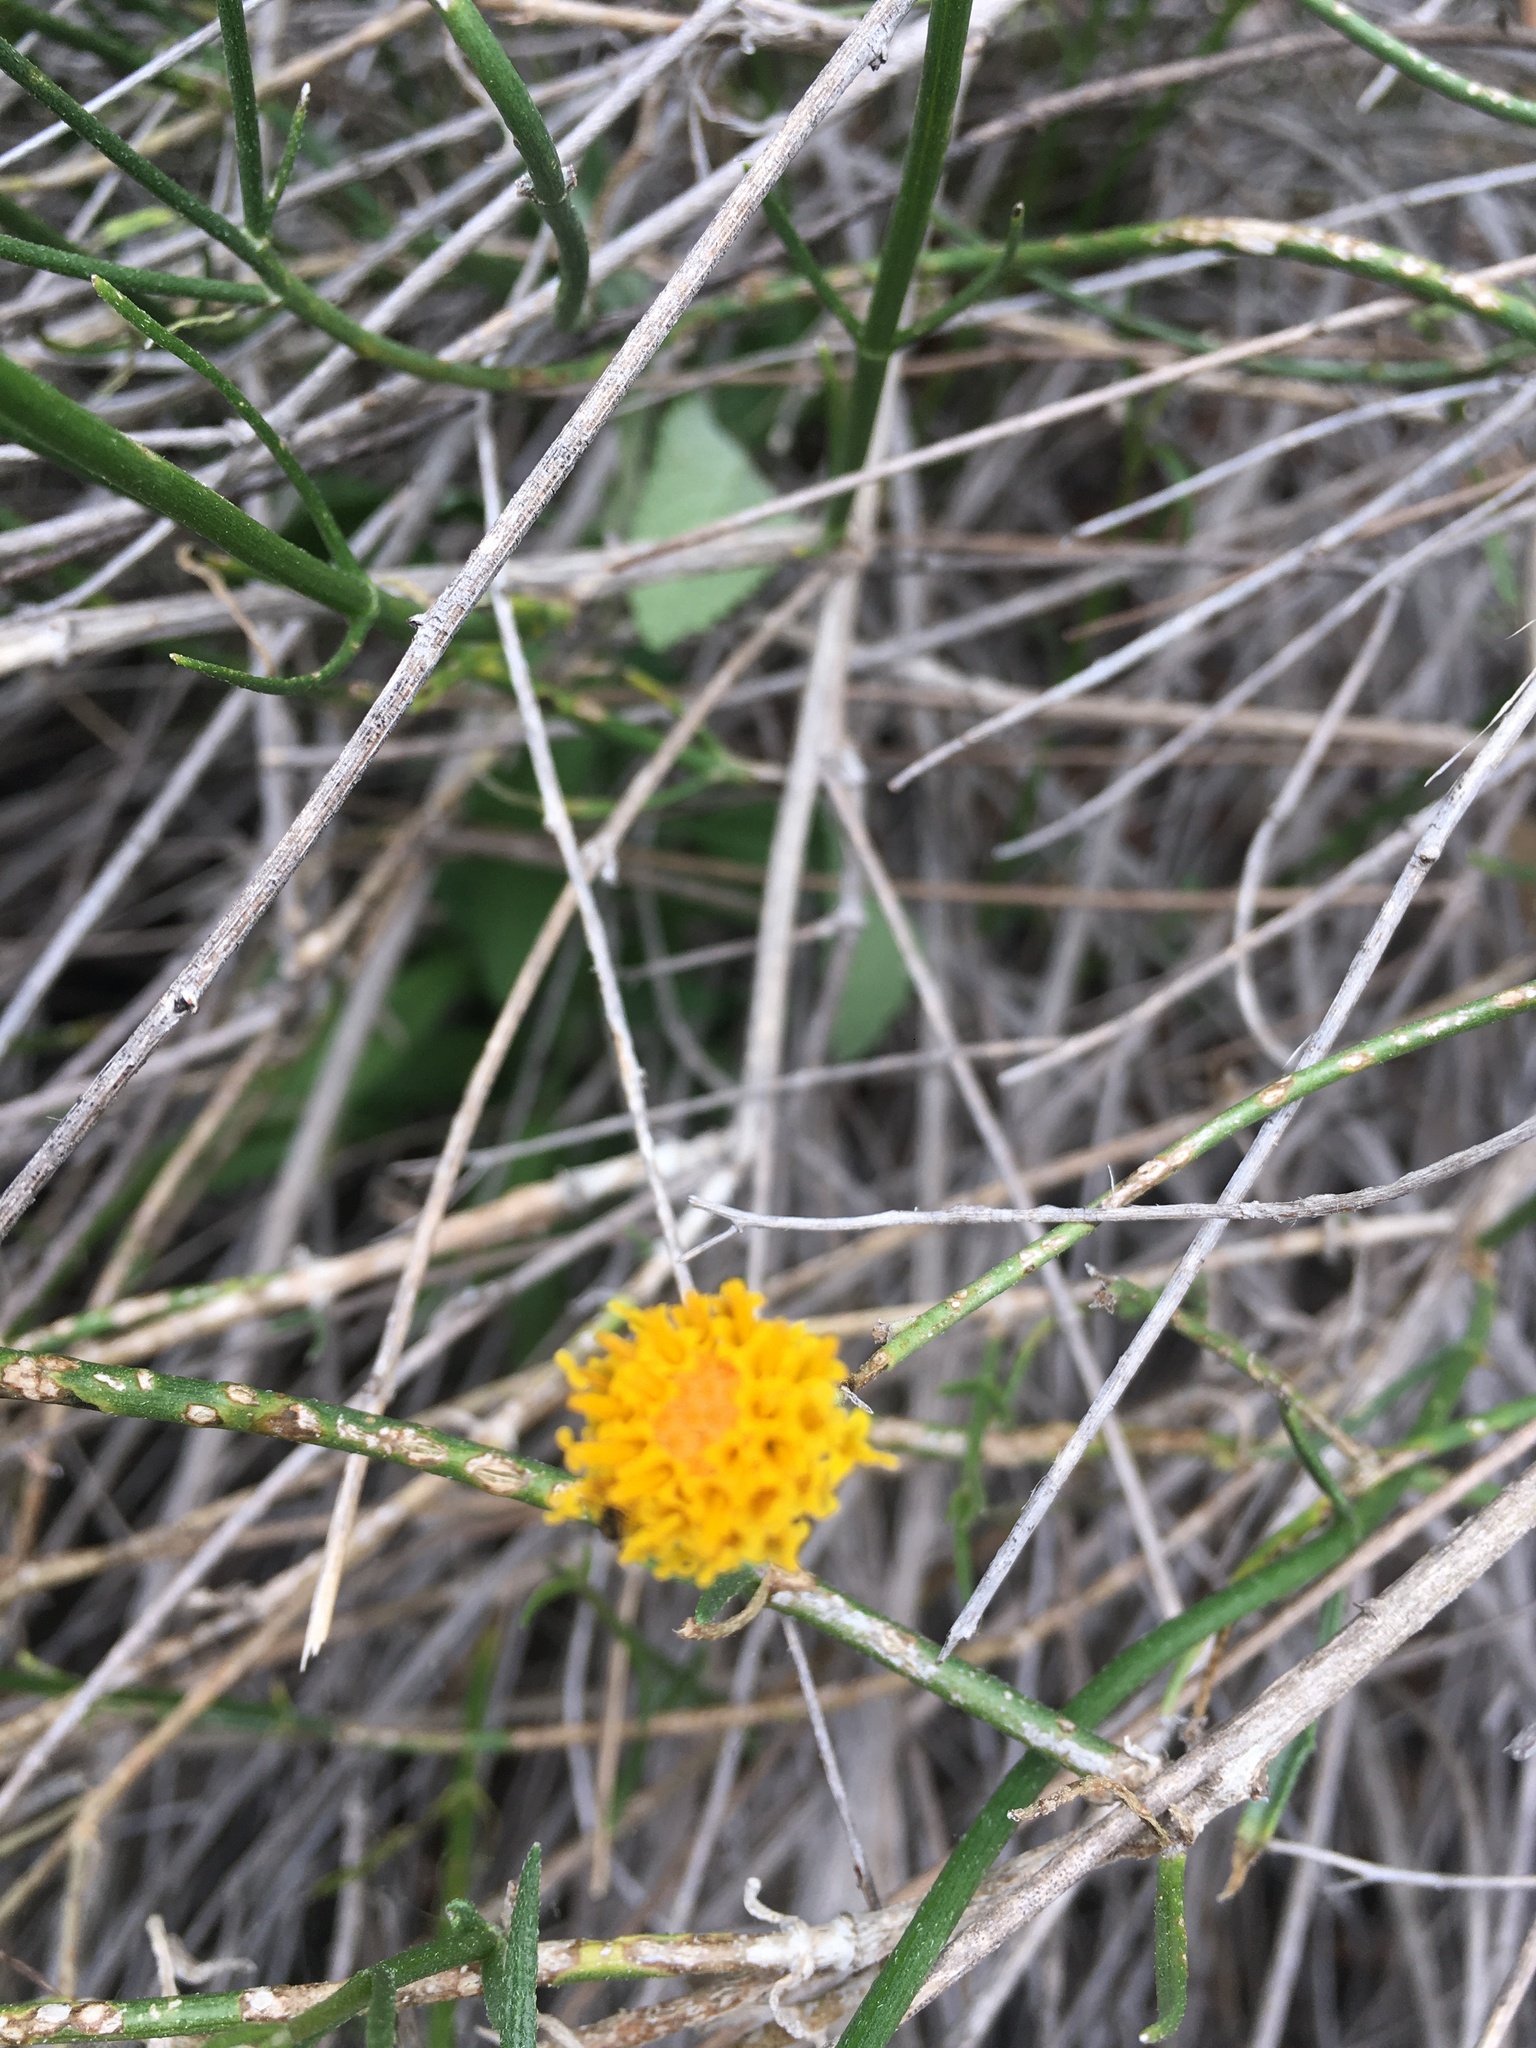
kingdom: Plantae
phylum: Tracheophyta
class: Magnoliopsida
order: Asterales
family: Asteraceae
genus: Bebbia
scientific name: Bebbia juncea
